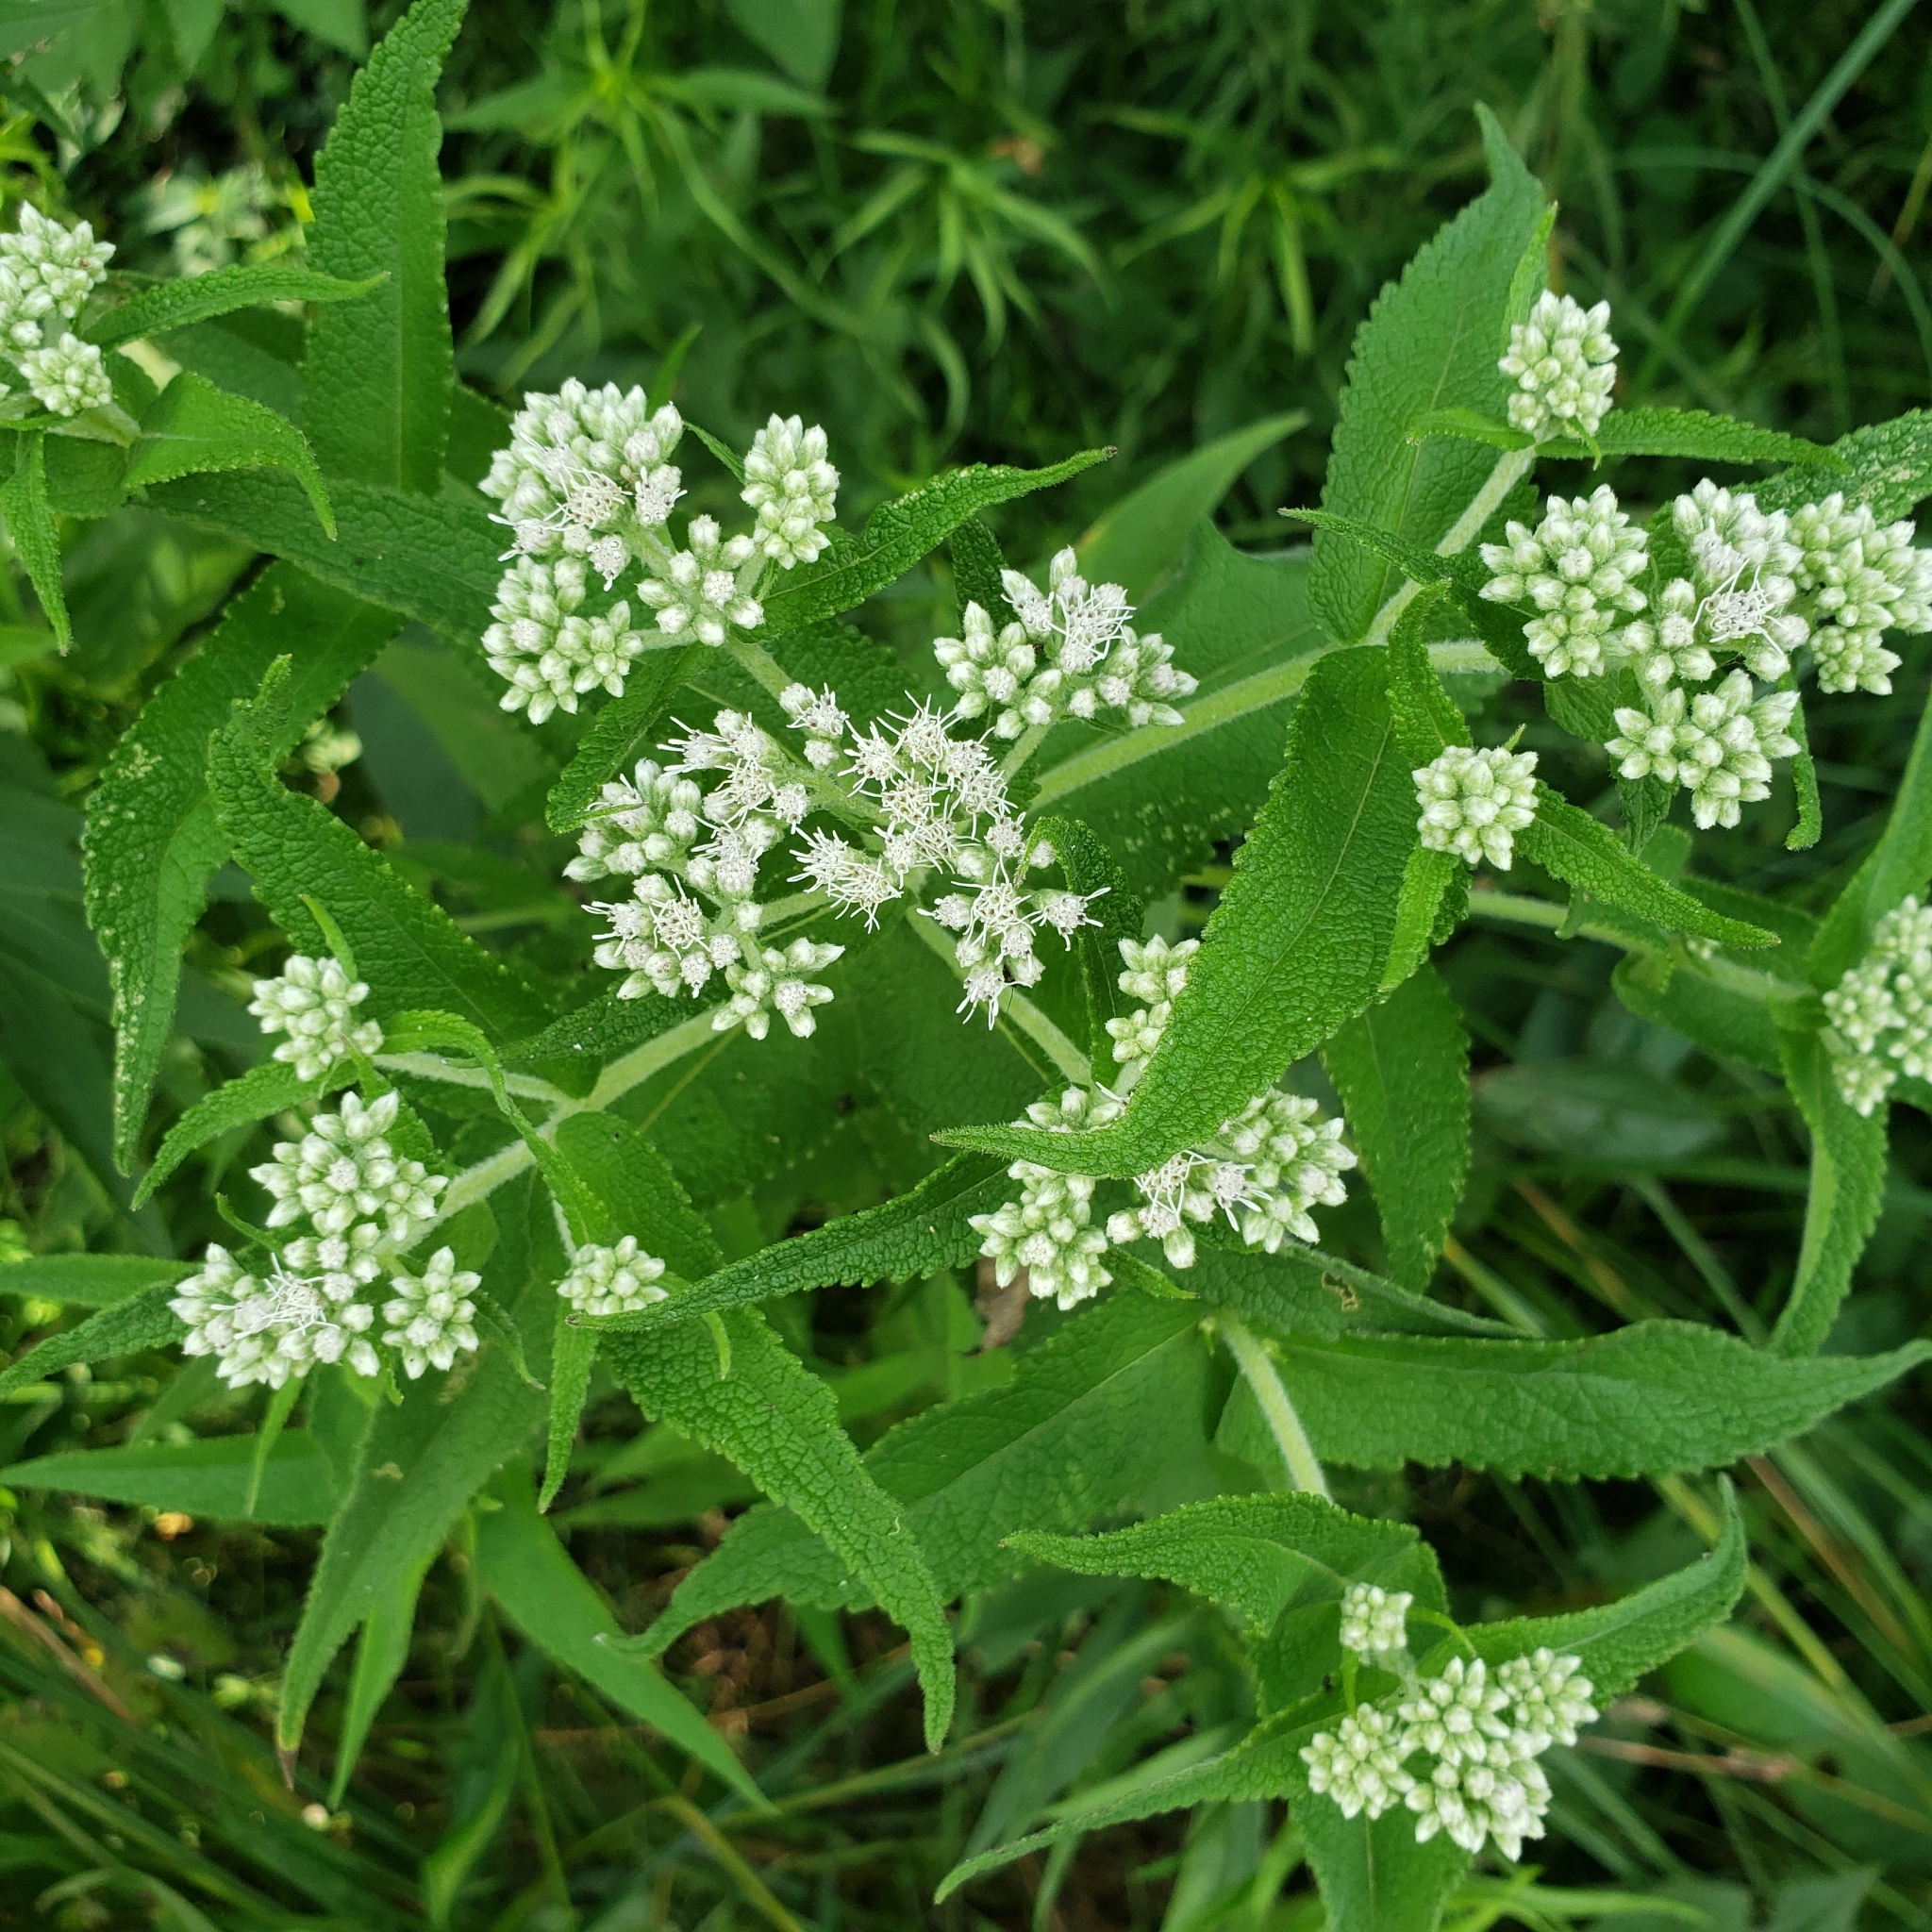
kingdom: Plantae
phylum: Tracheophyta
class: Magnoliopsida
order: Asterales
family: Asteraceae
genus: Eupatorium
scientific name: Eupatorium perfoliatum
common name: Boneset
